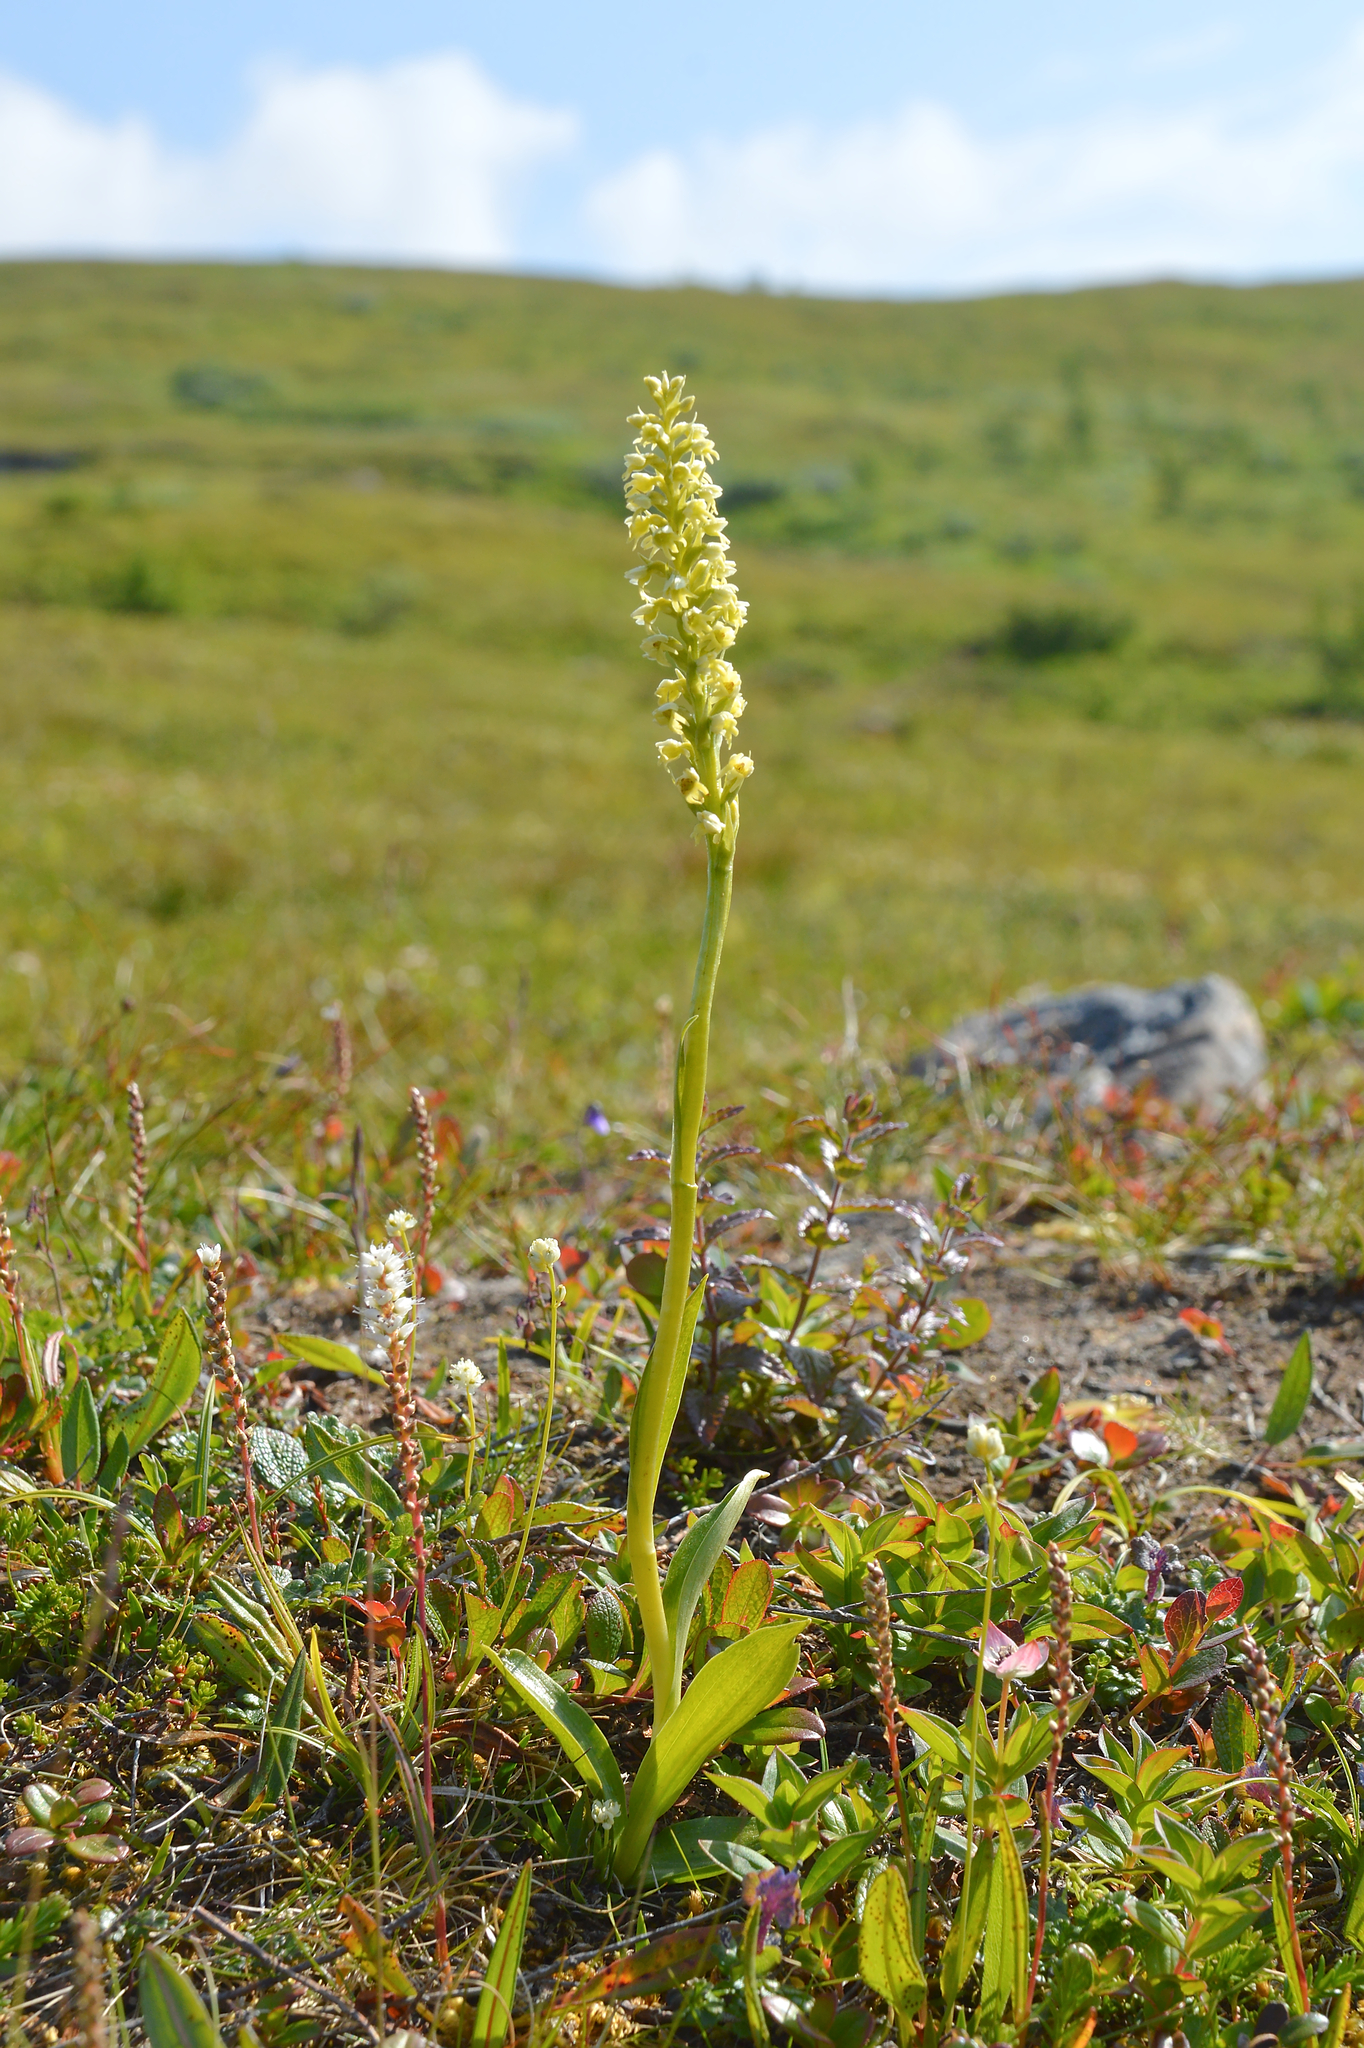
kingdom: Plantae
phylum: Tracheophyta
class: Liliopsida
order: Asparagales
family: Orchidaceae
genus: Pseudorchis
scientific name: Pseudorchis straminea
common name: Vanilla-scented bog orchid
